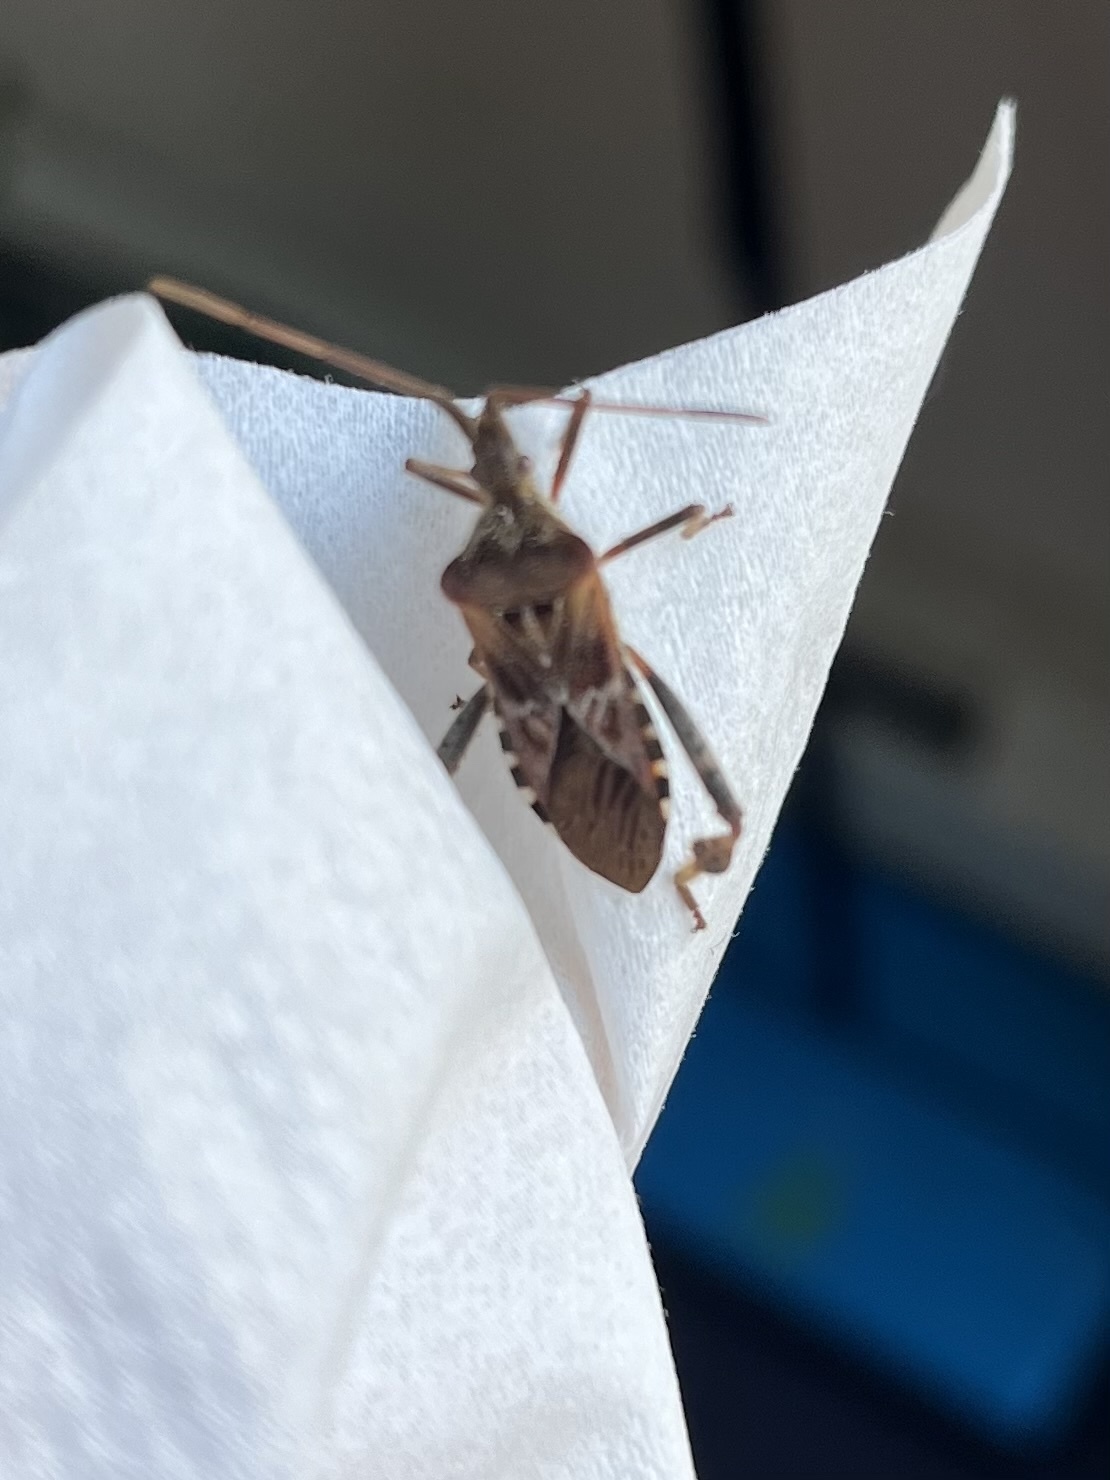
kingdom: Animalia
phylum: Arthropoda
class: Insecta
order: Hemiptera
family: Coreidae
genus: Leptoglossus
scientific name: Leptoglossus occidentalis
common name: Western conifer-seed bug
